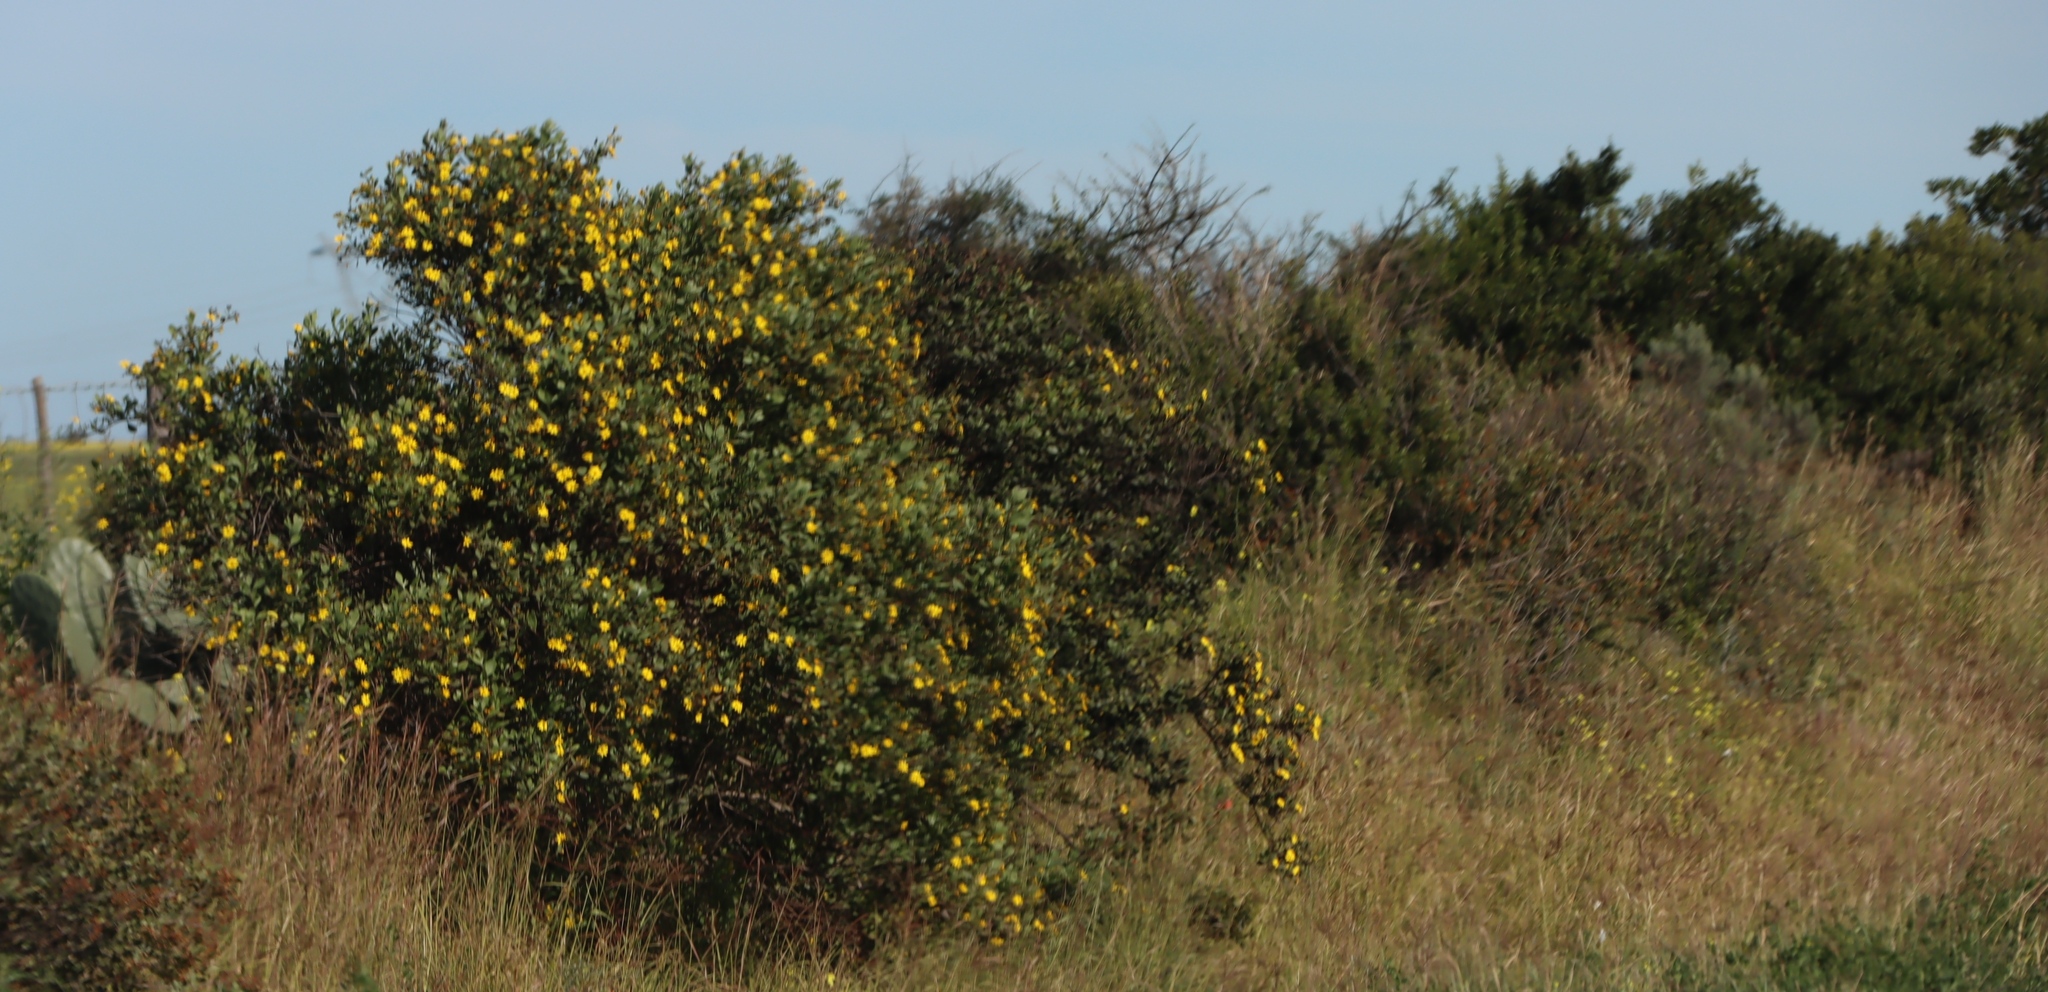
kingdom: Plantae
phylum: Tracheophyta
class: Magnoliopsida
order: Asterales
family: Asteraceae
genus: Osteospermum
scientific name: Osteospermum moniliferum
